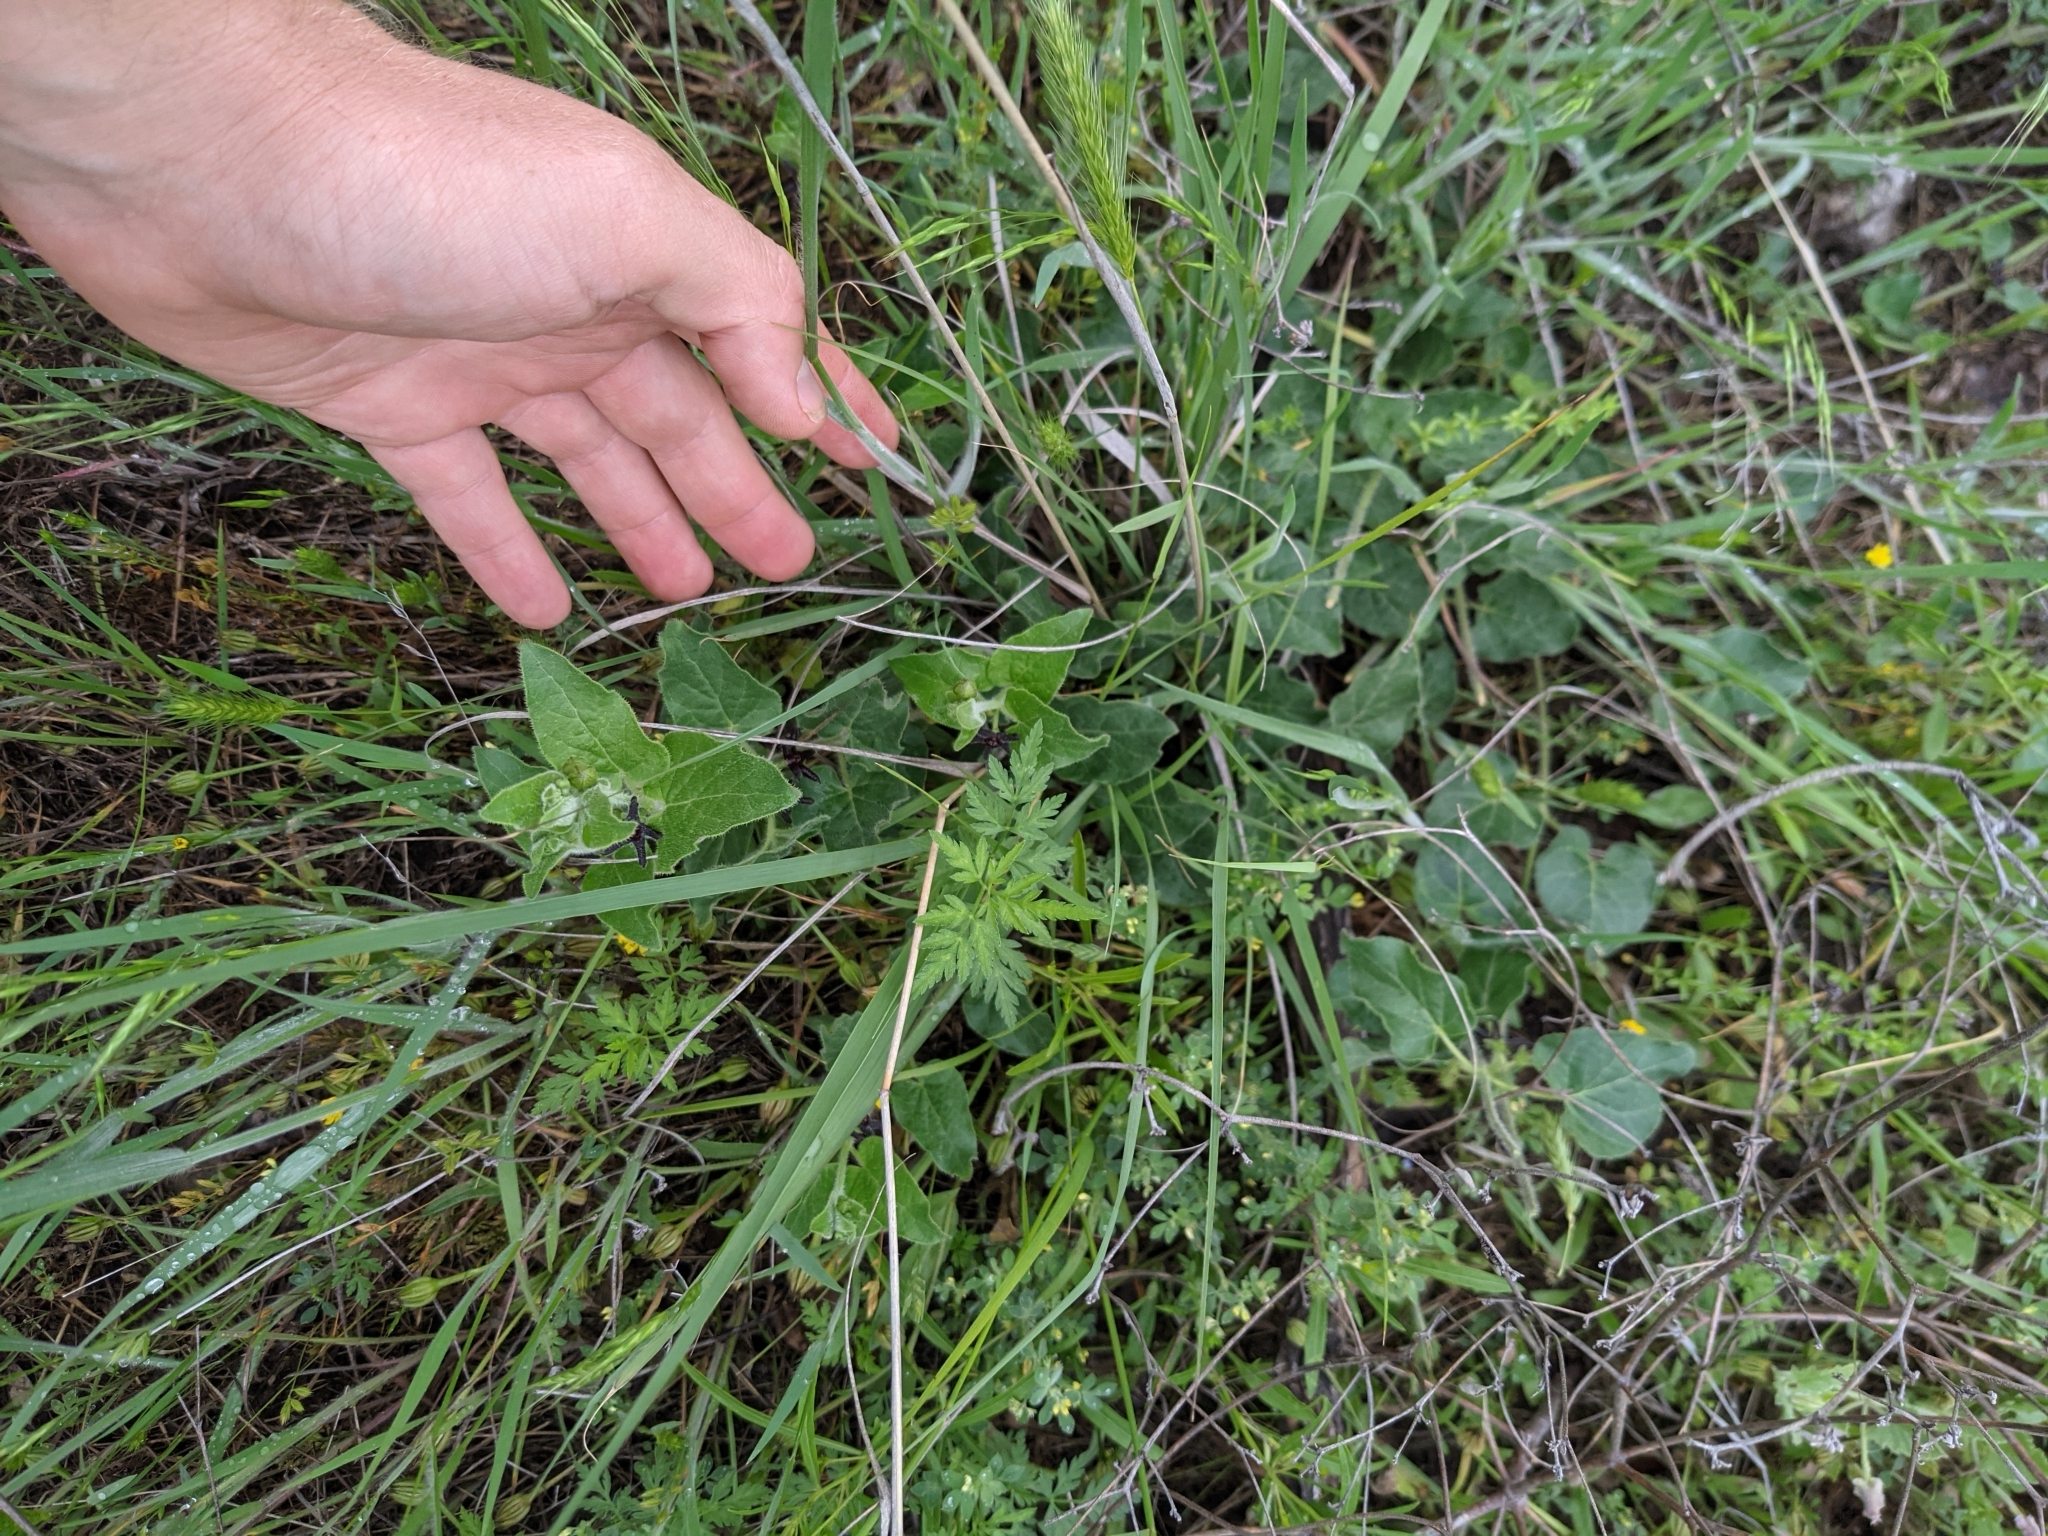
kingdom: Plantae
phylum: Tracheophyta
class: Magnoliopsida
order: Gentianales
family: Apocynaceae
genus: Chthamalia
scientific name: Chthamalia biflora
